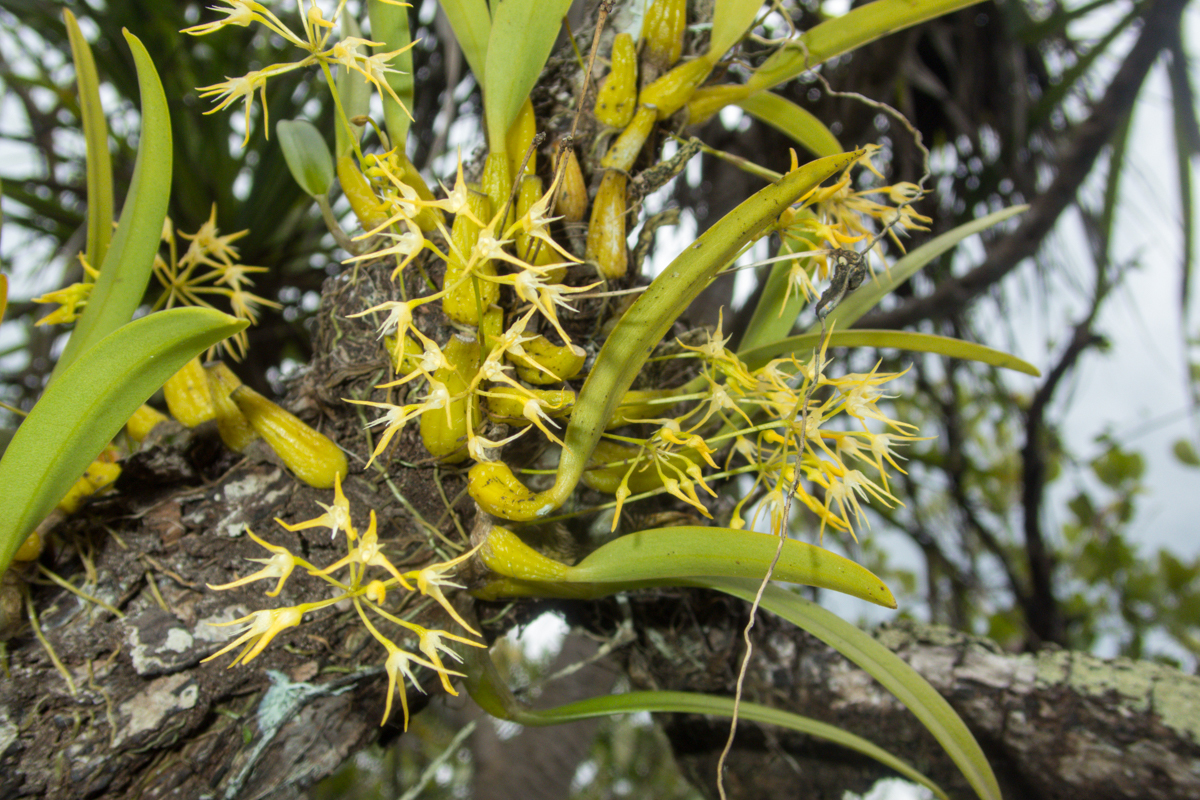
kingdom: Plantae
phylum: Tracheophyta
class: Liliopsida
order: Asparagales
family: Orchidaceae
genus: Bulbophyllum
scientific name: Bulbophyllum laxiflorum
